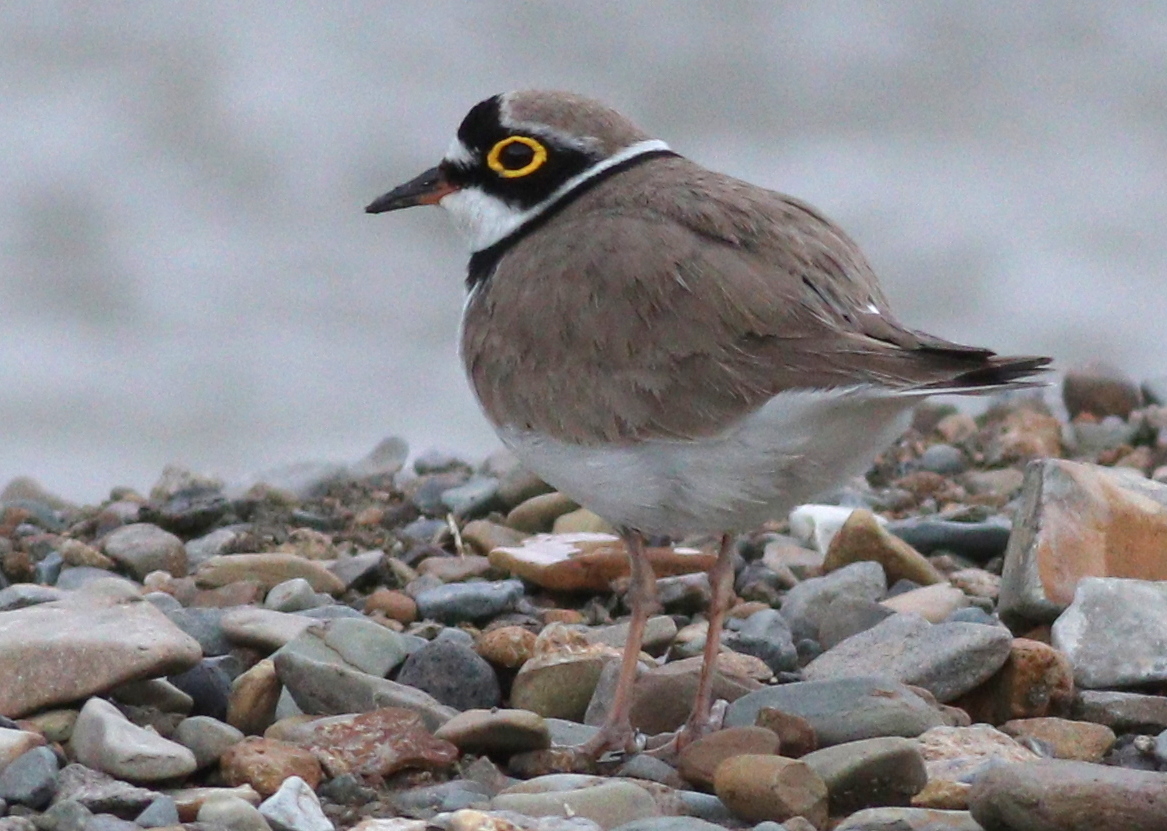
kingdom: Animalia
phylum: Chordata
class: Aves
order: Charadriiformes
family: Charadriidae
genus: Charadrius
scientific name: Charadrius dubius
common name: Little ringed plover
